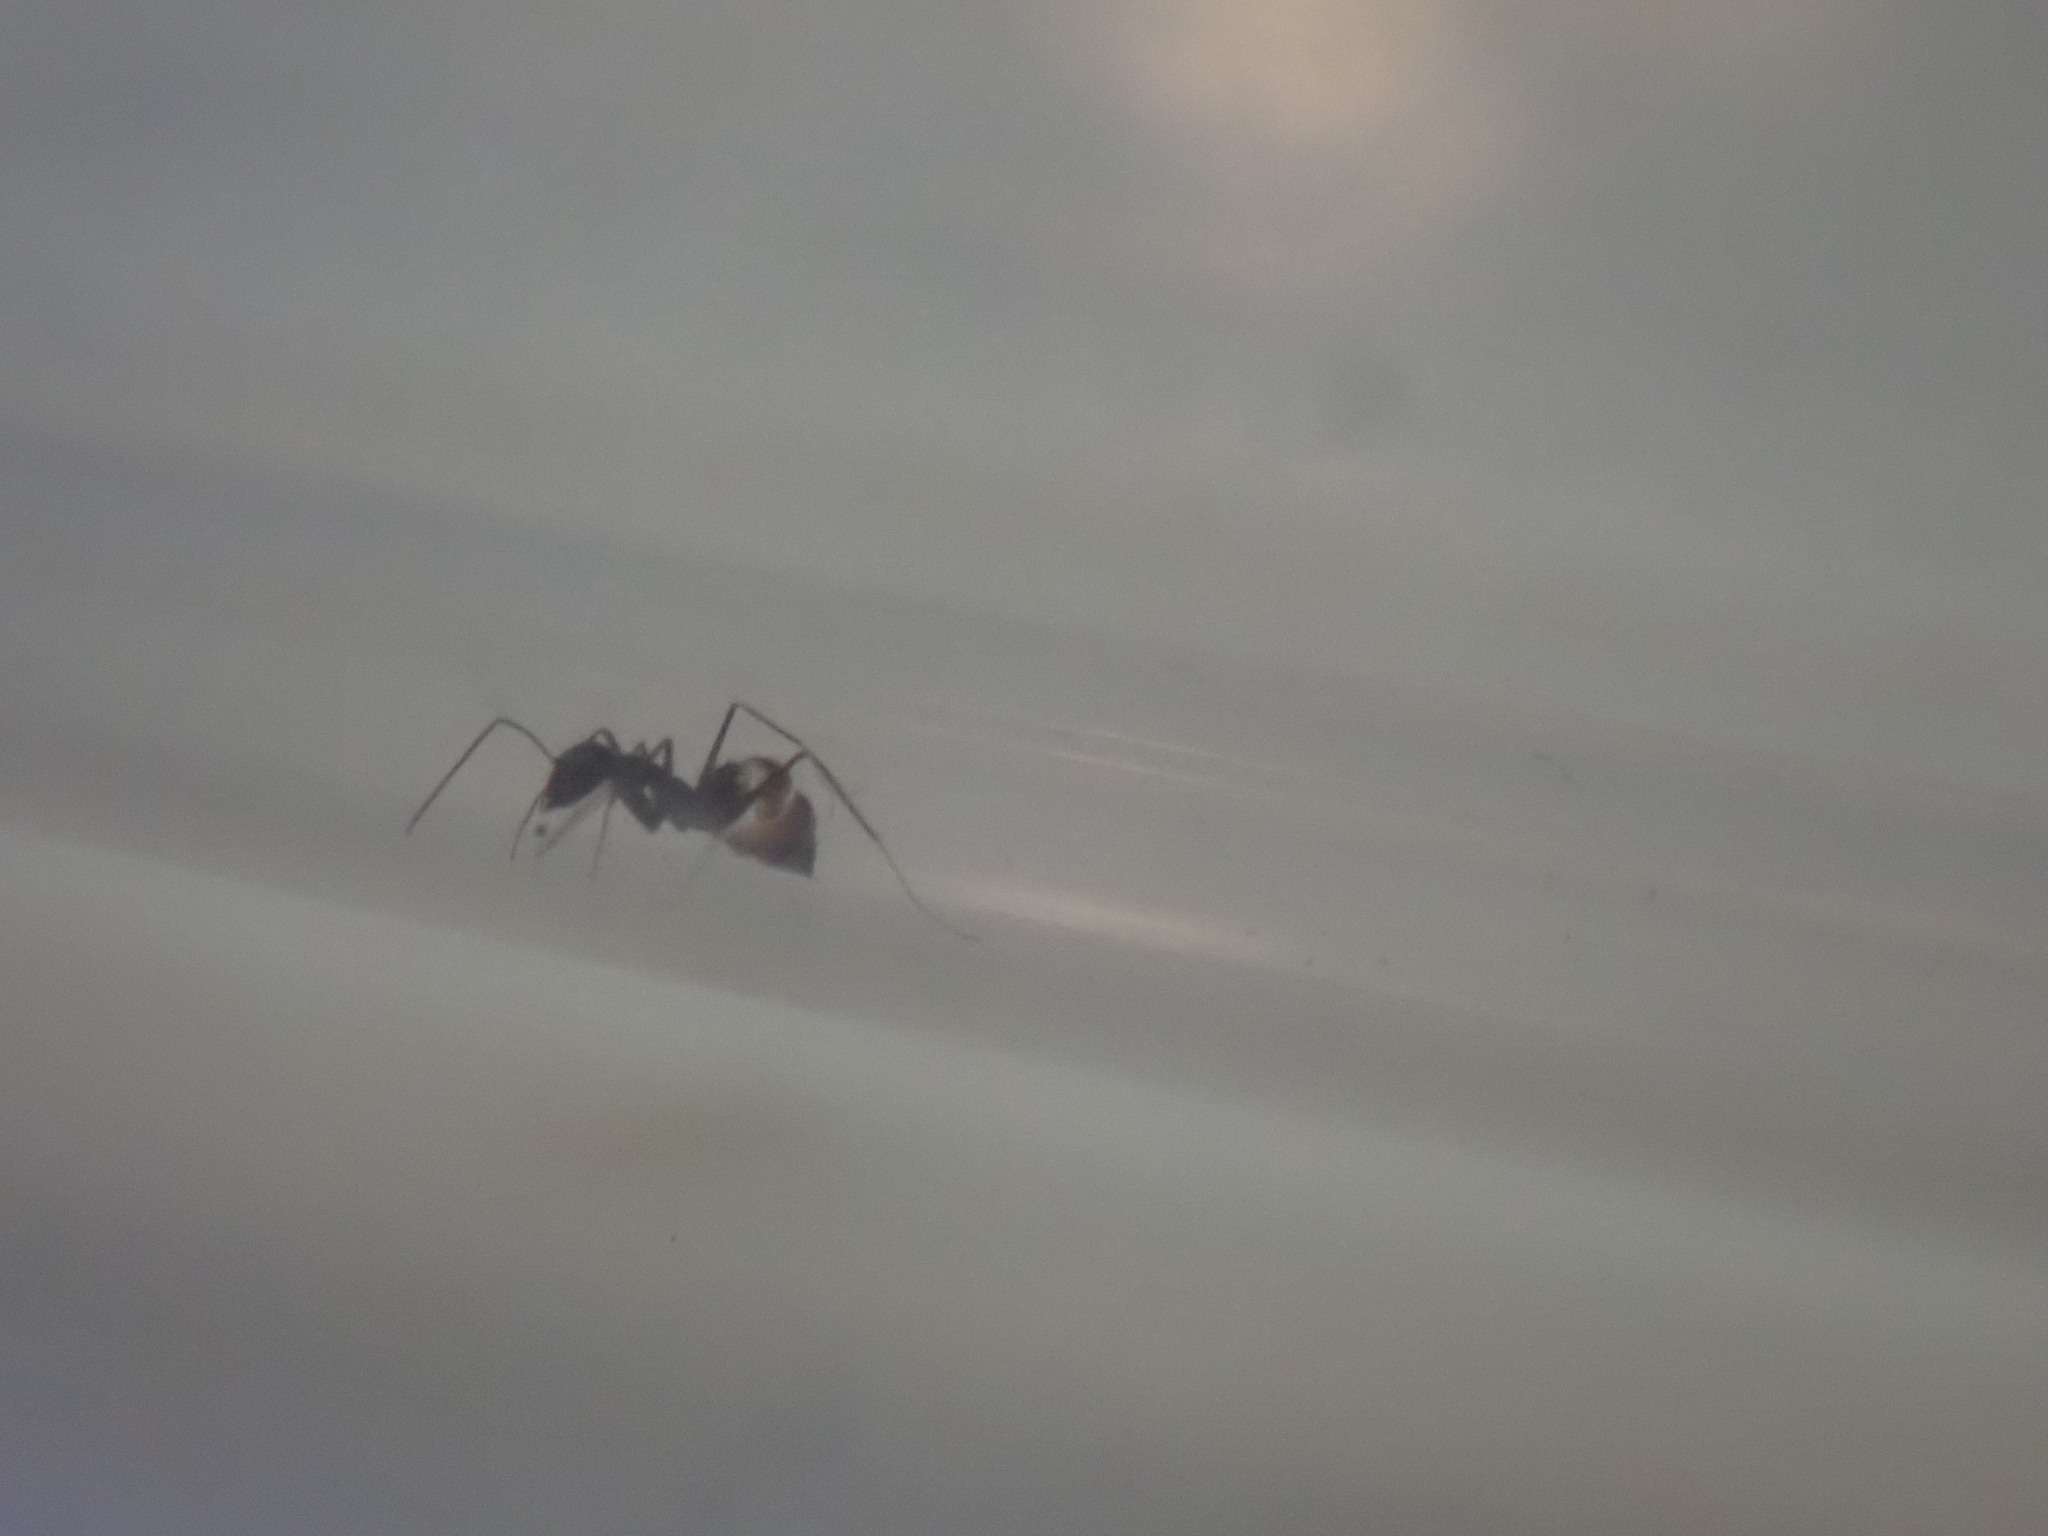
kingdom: Animalia
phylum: Arthropoda
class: Insecta
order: Hymenoptera
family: Formicidae
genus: Paratrechina
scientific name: Paratrechina longicornis
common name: Longhorned crazy ant
